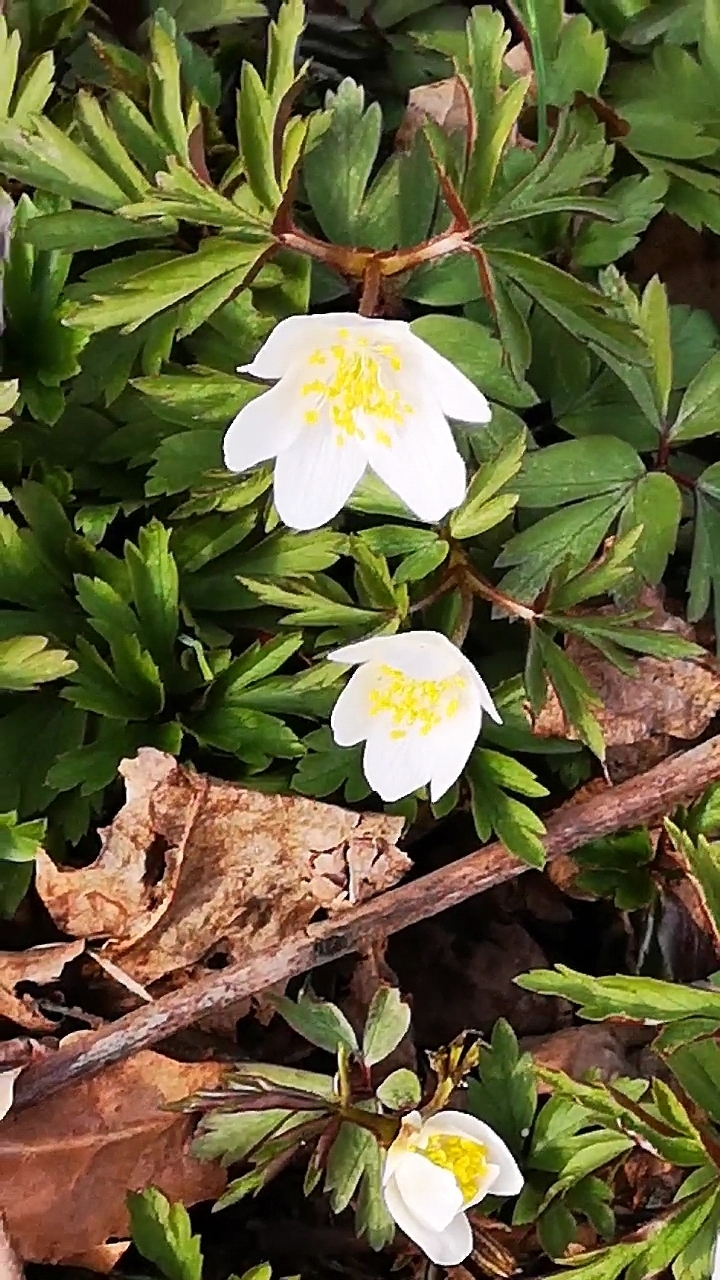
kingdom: Plantae
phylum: Tracheophyta
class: Magnoliopsida
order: Ranunculales
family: Ranunculaceae
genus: Anemone
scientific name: Anemone nemorosa
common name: Wood anemone
